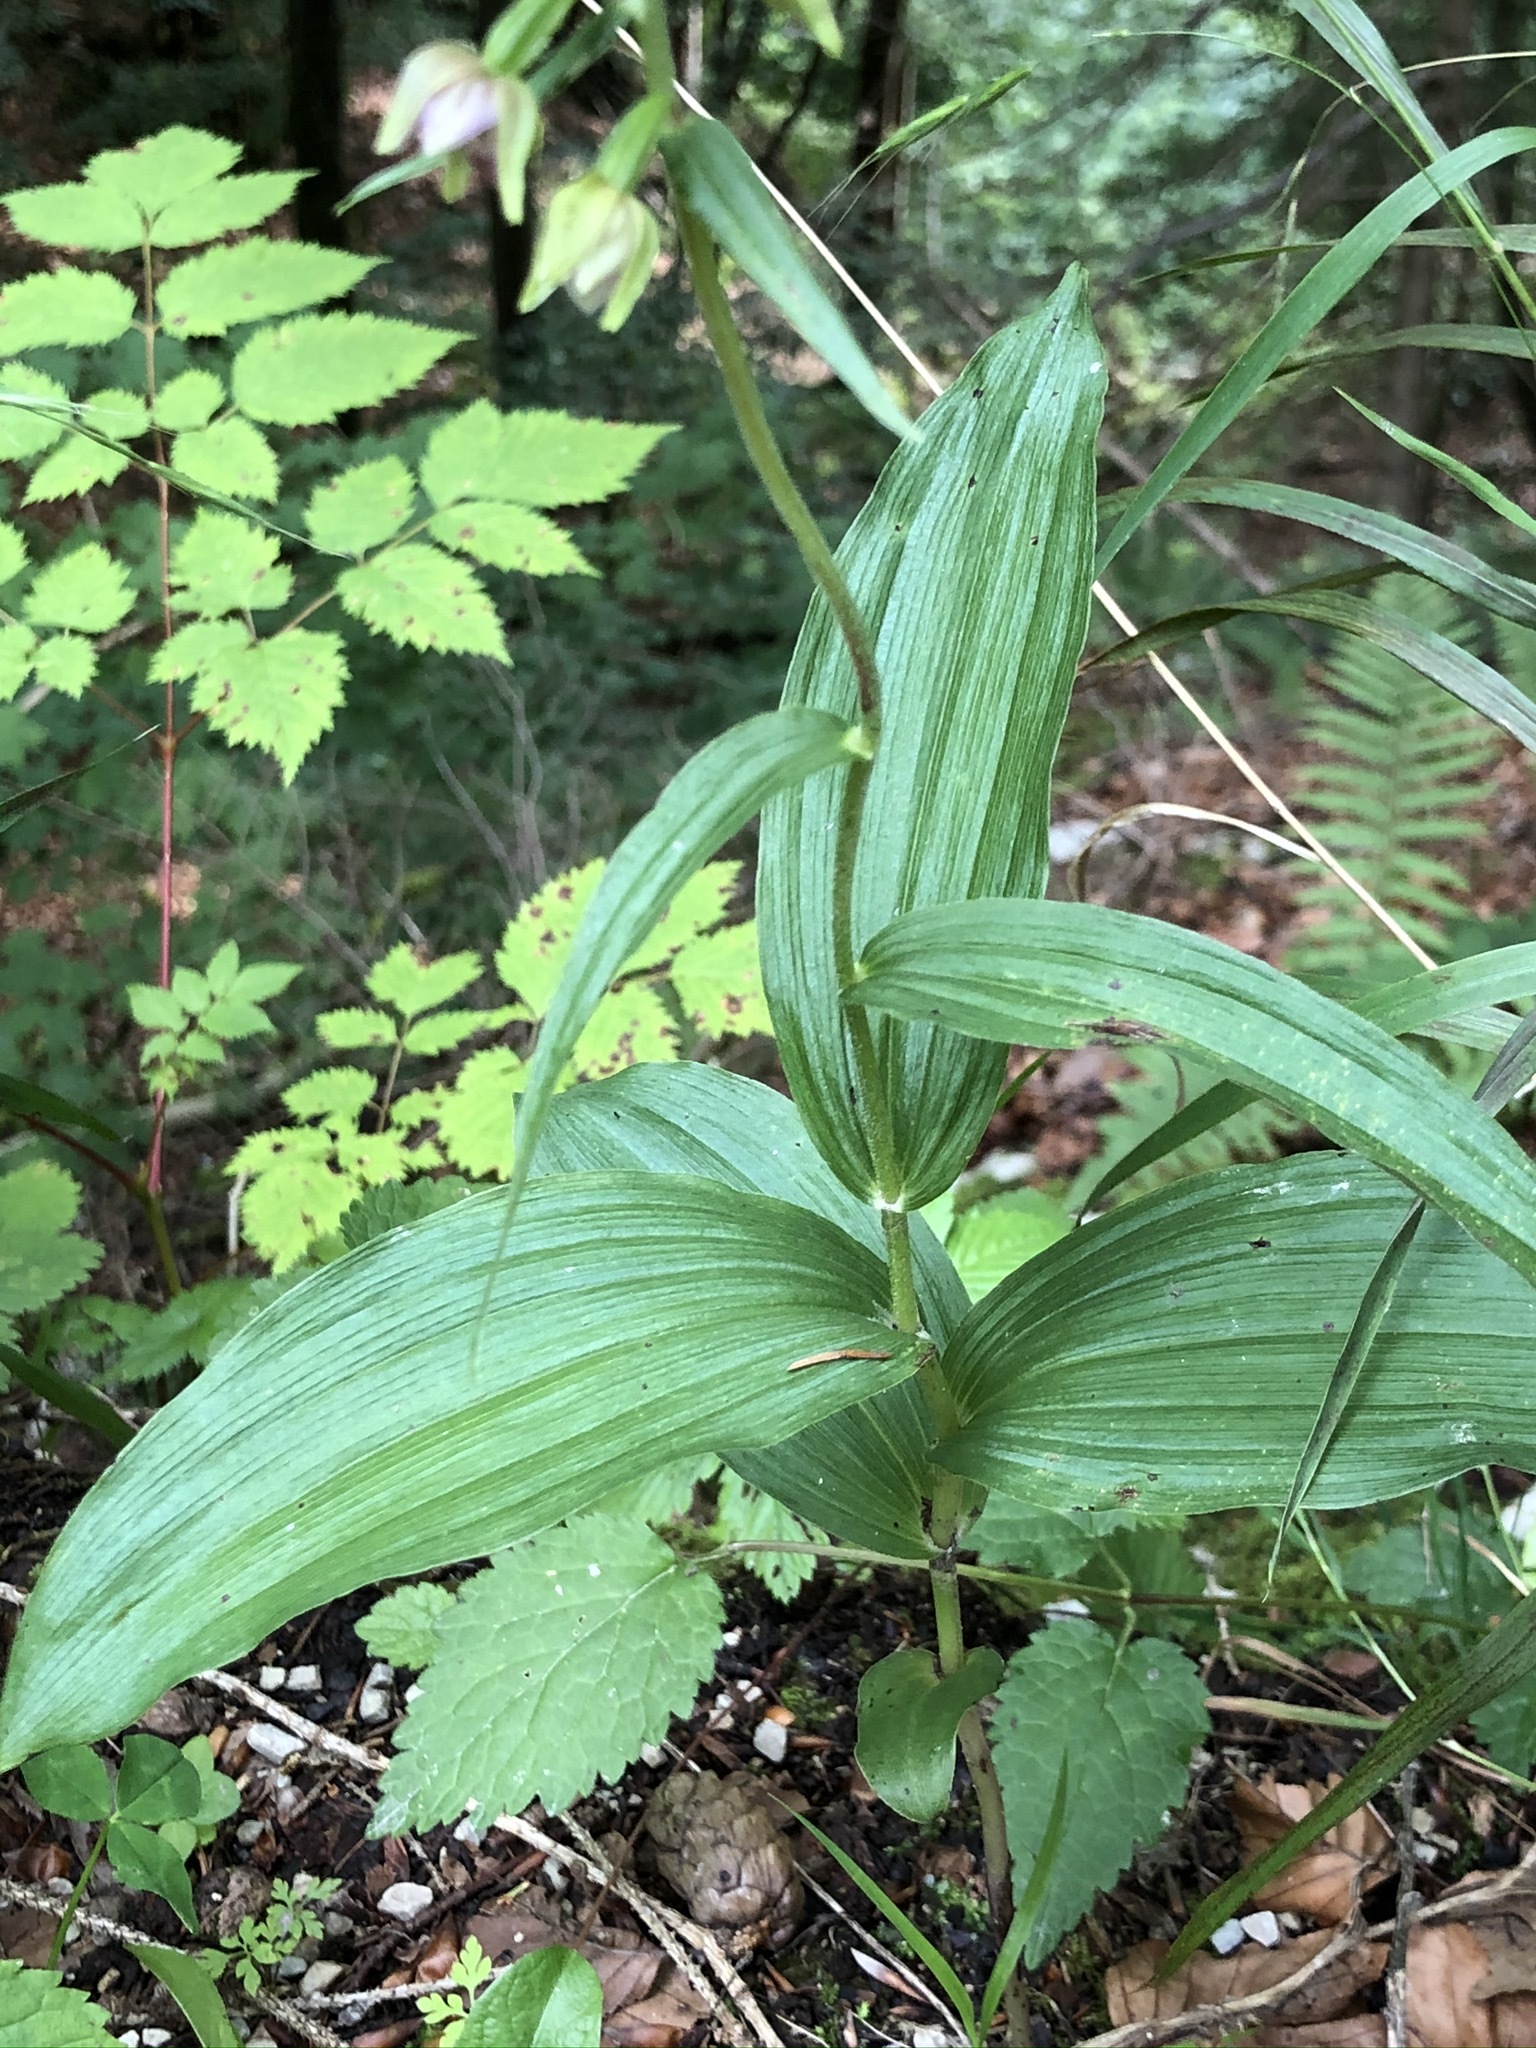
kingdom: Plantae
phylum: Tracheophyta
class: Liliopsida
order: Asparagales
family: Orchidaceae
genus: Epipactis
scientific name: Epipactis helleborine
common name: Broad-leaved helleborine
